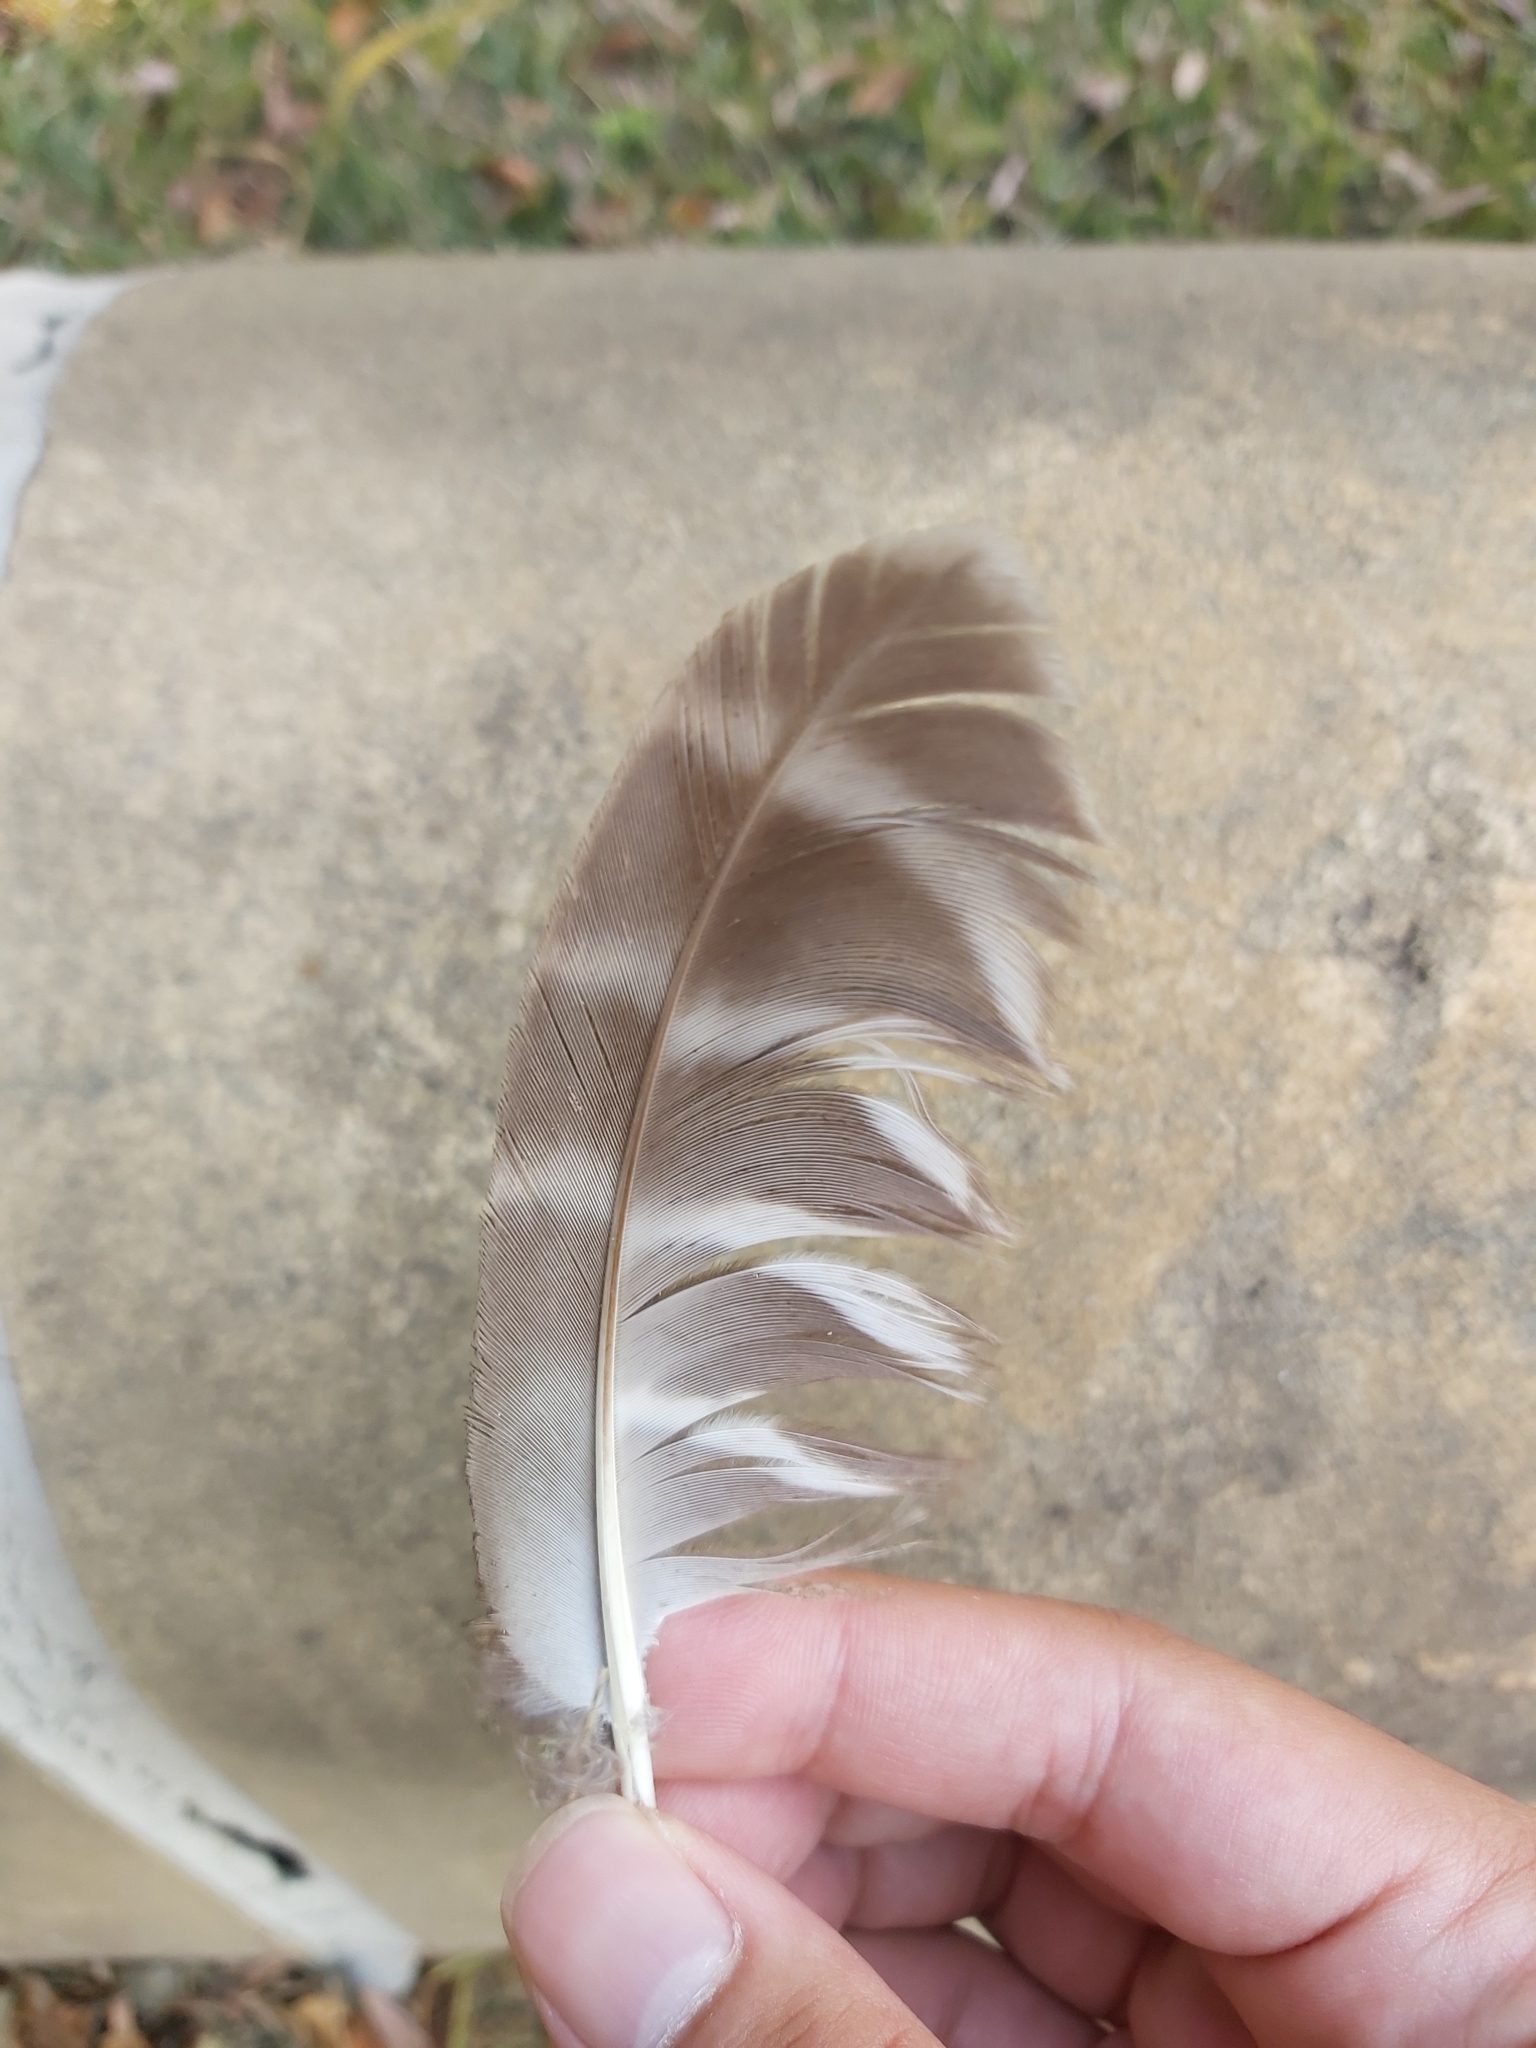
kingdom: Animalia
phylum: Chordata
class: Aves
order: Strigiformes
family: Strigidae
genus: Ninox
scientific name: Ninox strenua
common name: Powerful owl
